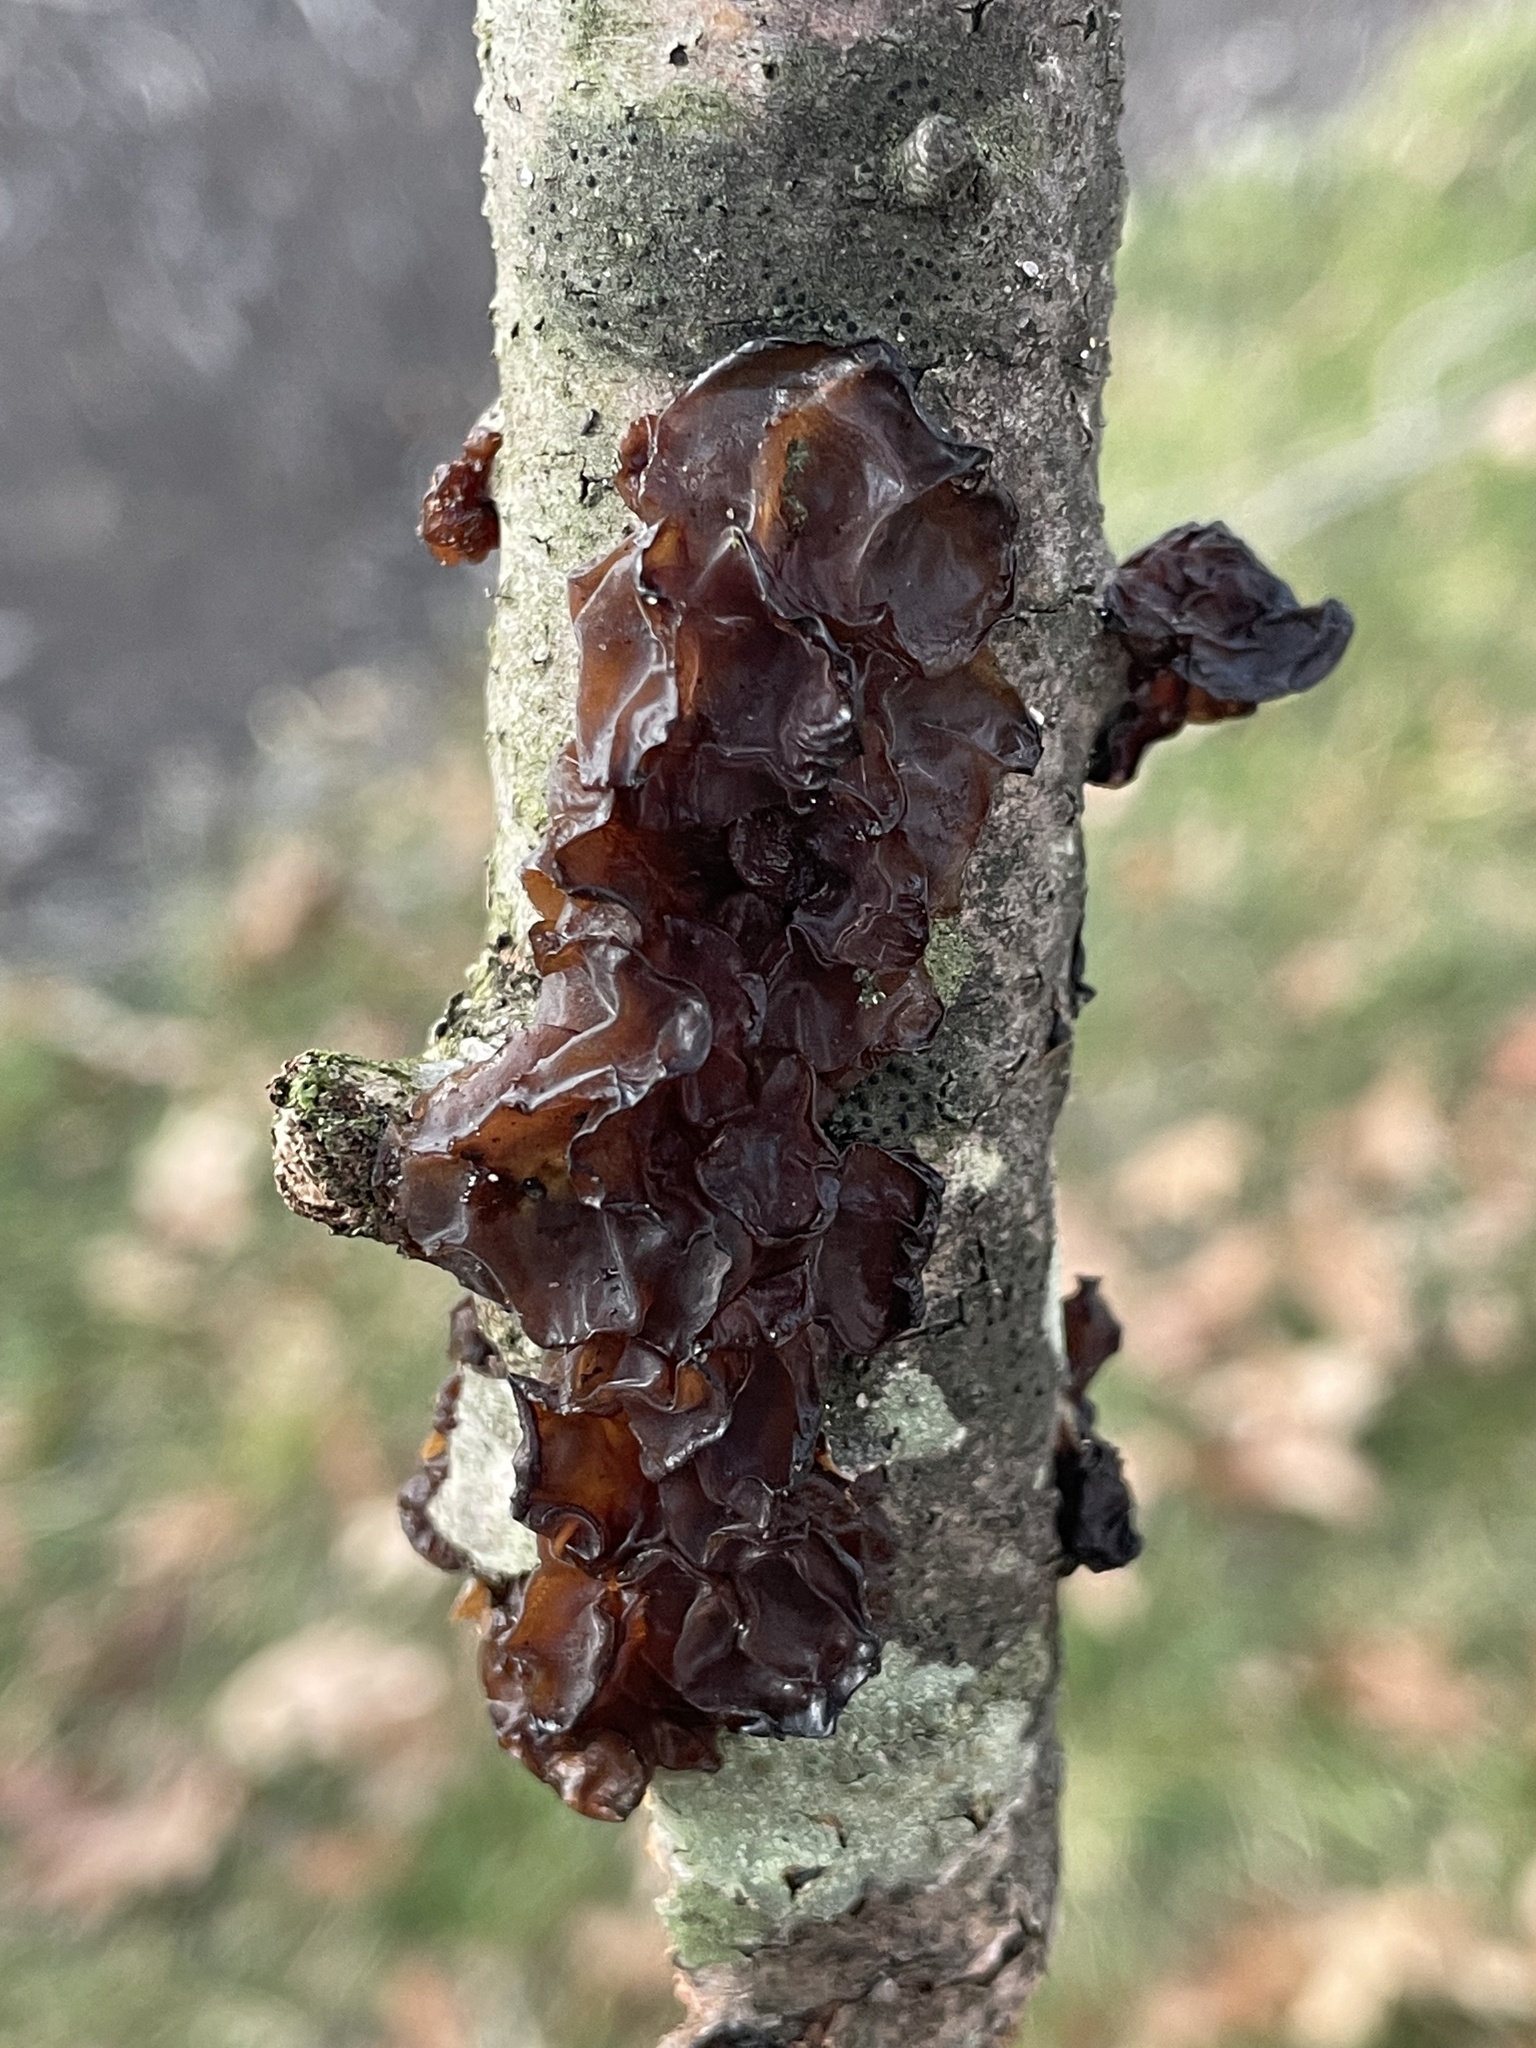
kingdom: Fungi
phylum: Basidiomycota
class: Agaricomycetes
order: Auriculariales
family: Auriculariaceae
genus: Exidia
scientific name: Exidia
